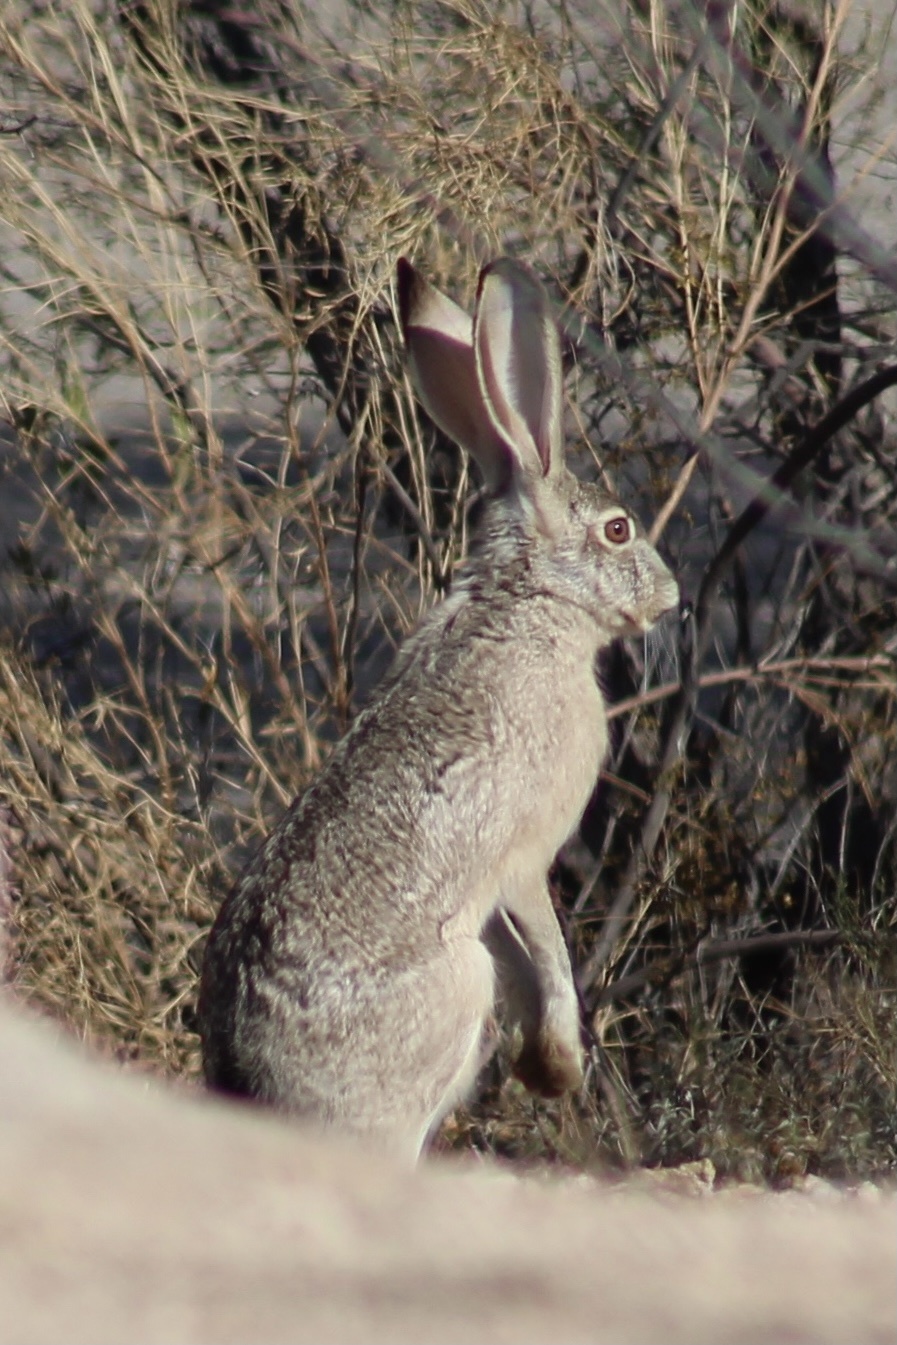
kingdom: Animalia
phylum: Chordata
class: Mammalia
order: Lagomorpha
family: Leporidae
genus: Lepus
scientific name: Lepus californicus
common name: Black-tailed jackrabbit
